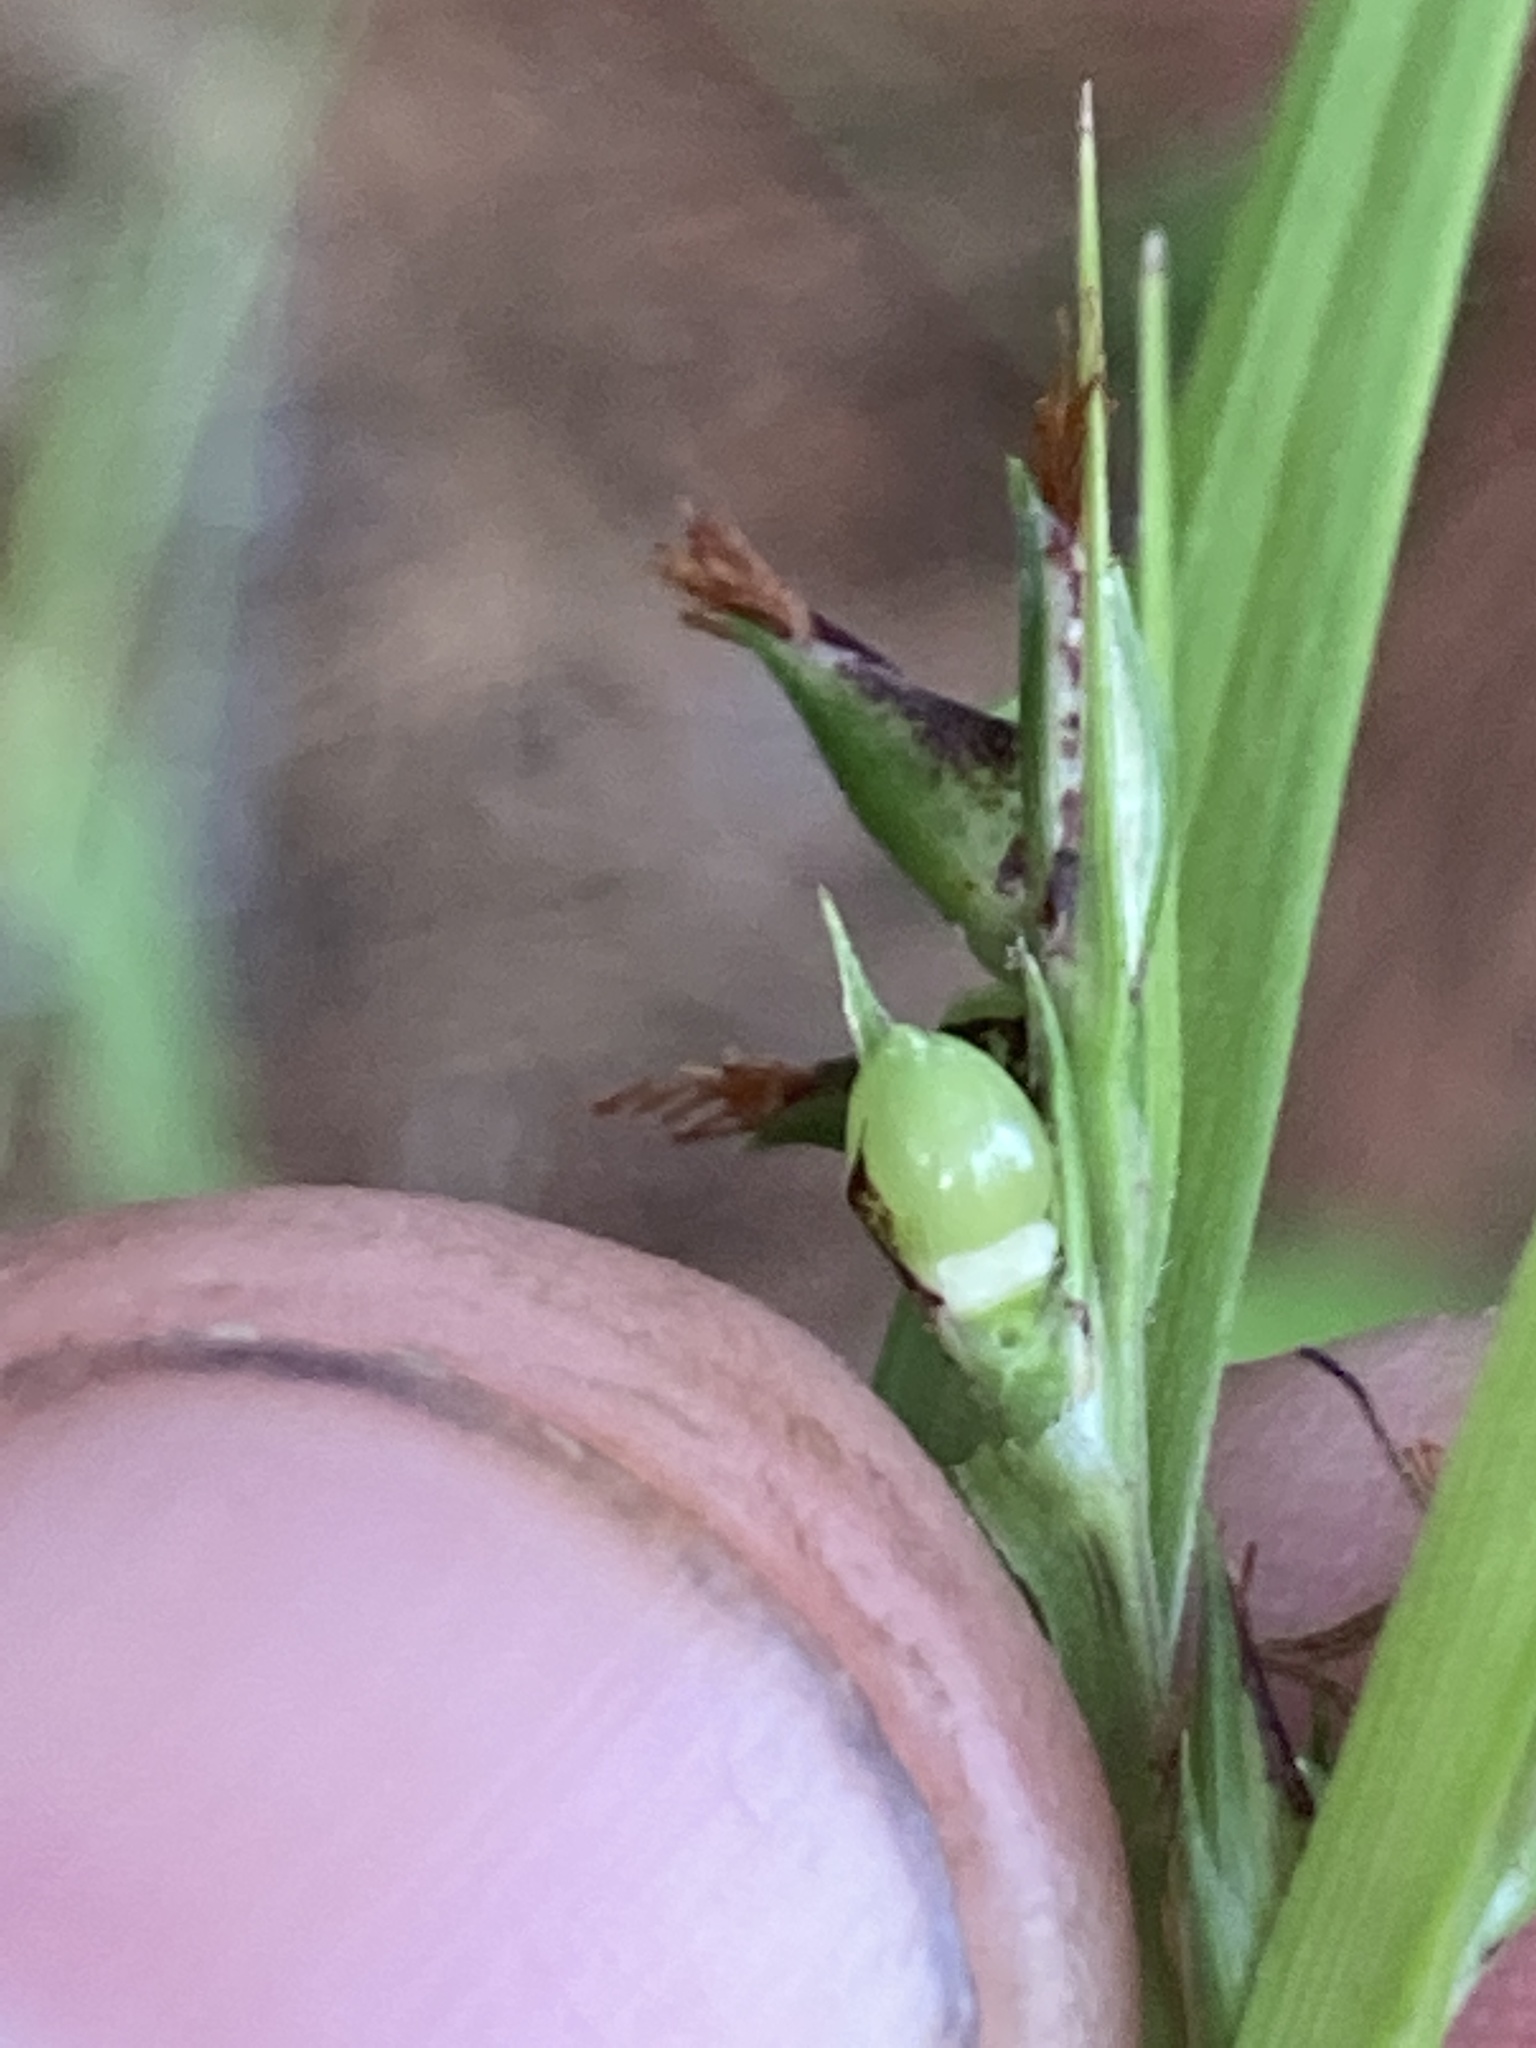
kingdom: Plantae
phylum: Tracheophyta
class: Liliopsida
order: Poales
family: Cyperaceae
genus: Scleria
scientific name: Scleria triglomerata
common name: Whip nutrush
